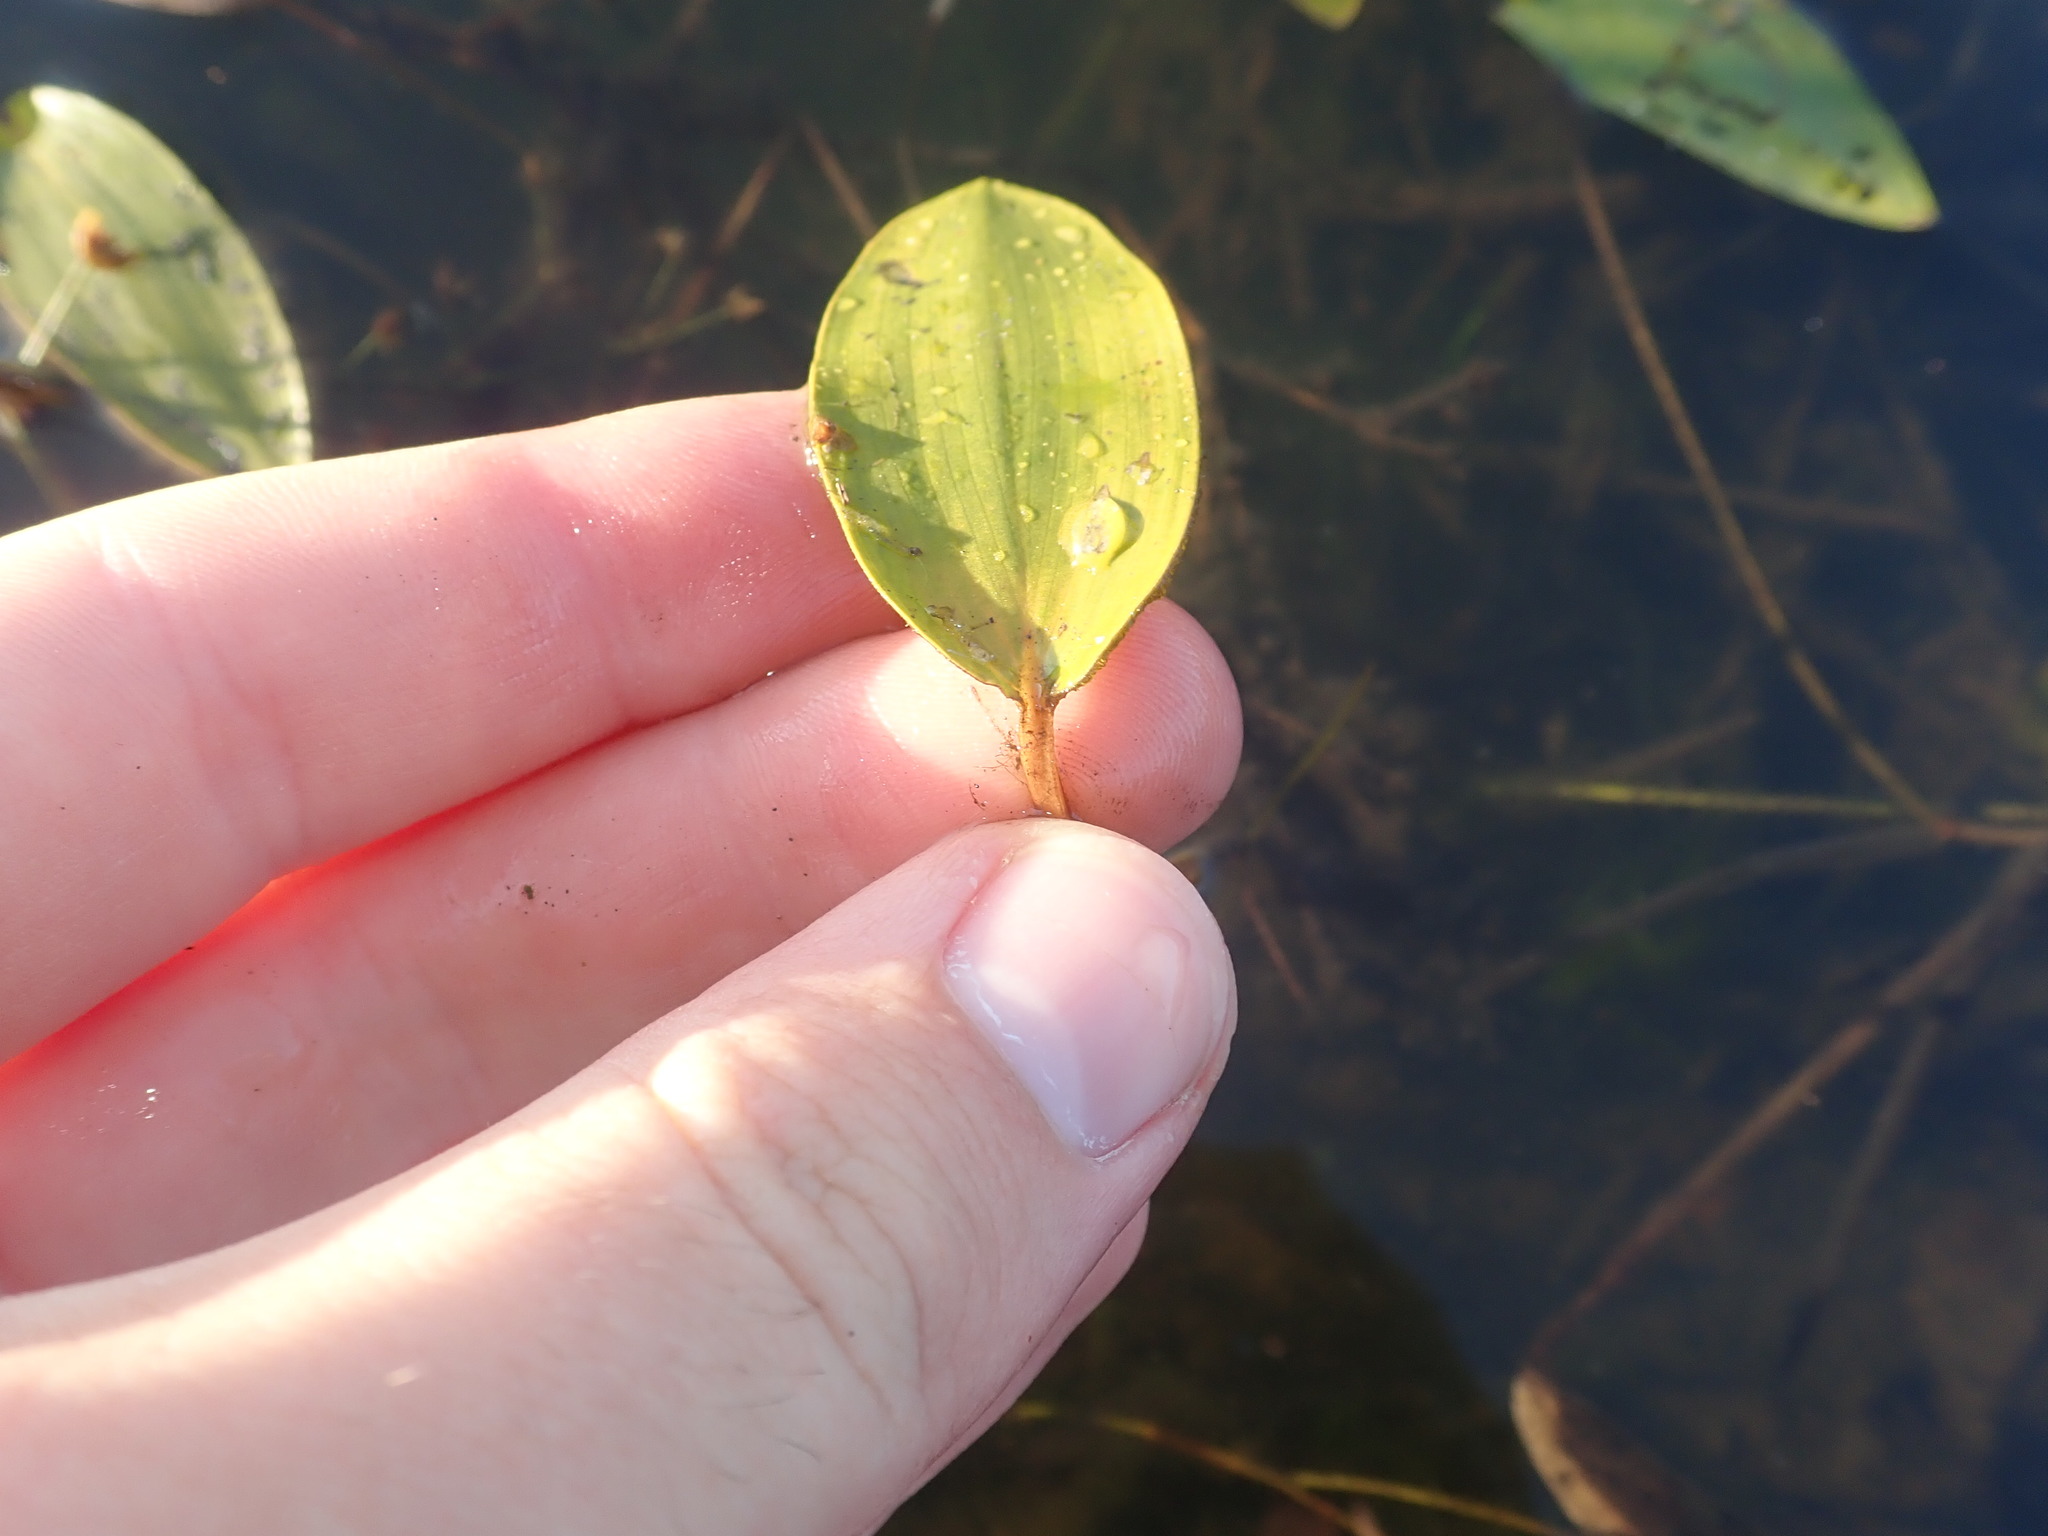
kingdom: Plantae
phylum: Tracheophyta
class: Liliopsida
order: Alismatales
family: Potamogetonaceae
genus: Potamogeton
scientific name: Potamogeton natans
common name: Broad-leaved pondweed
